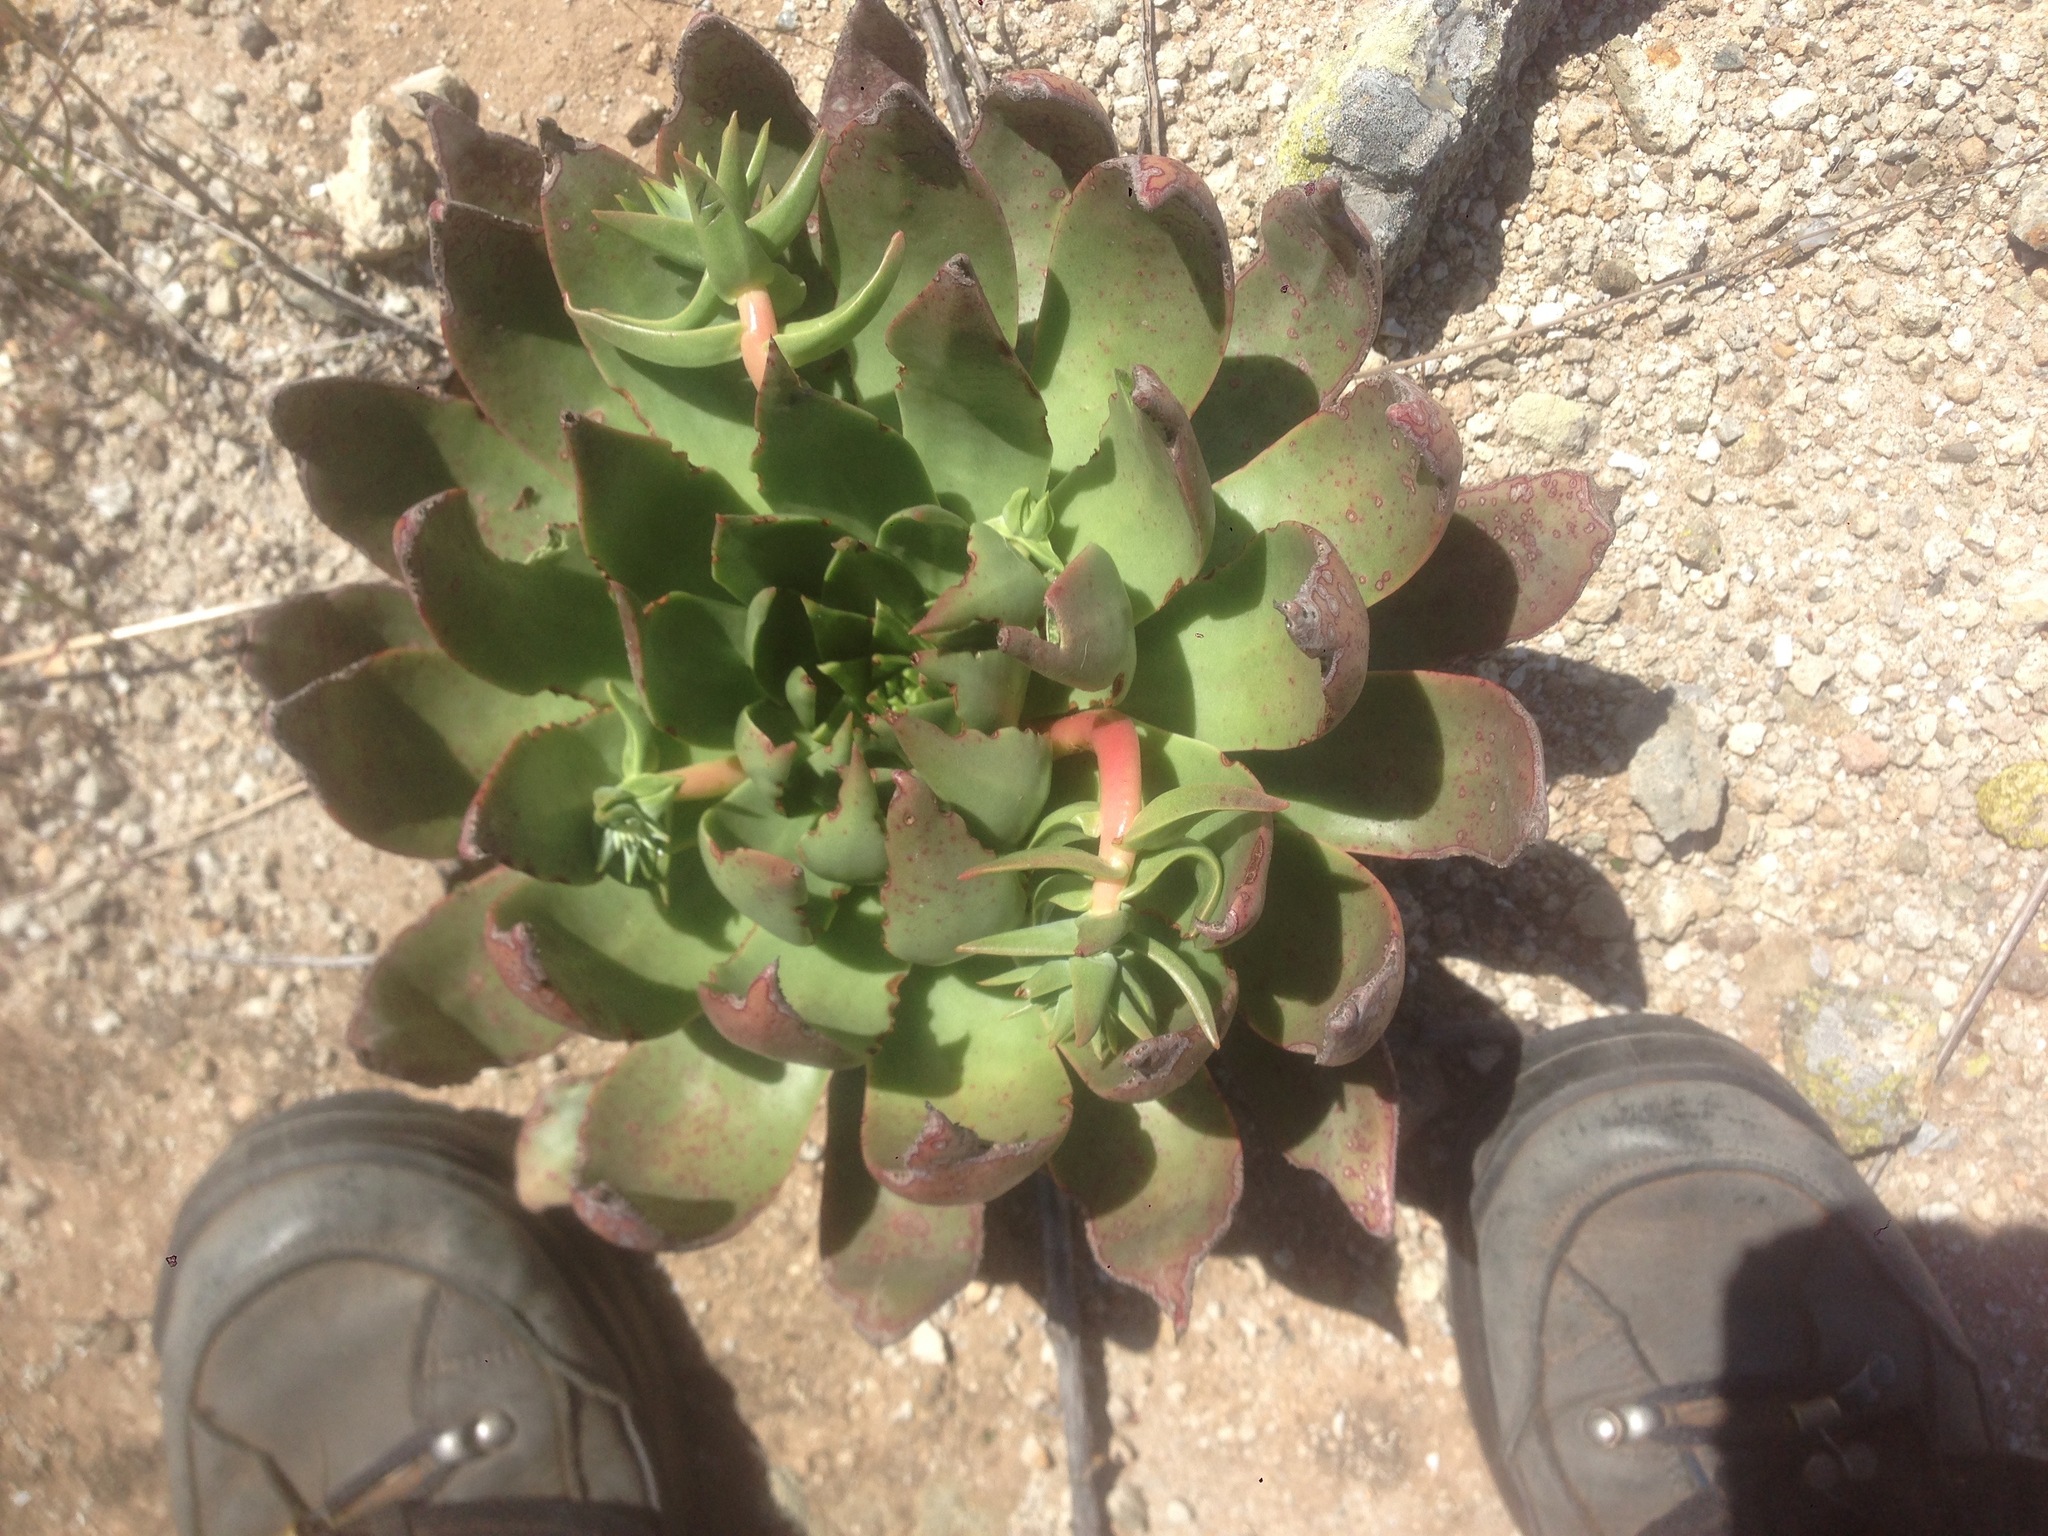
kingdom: Plantae
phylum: Tracheophyta
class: Magnoliopsida
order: Saxifragales
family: Crassulaceae
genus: Dudleya
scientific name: Dudleya candelabrum
